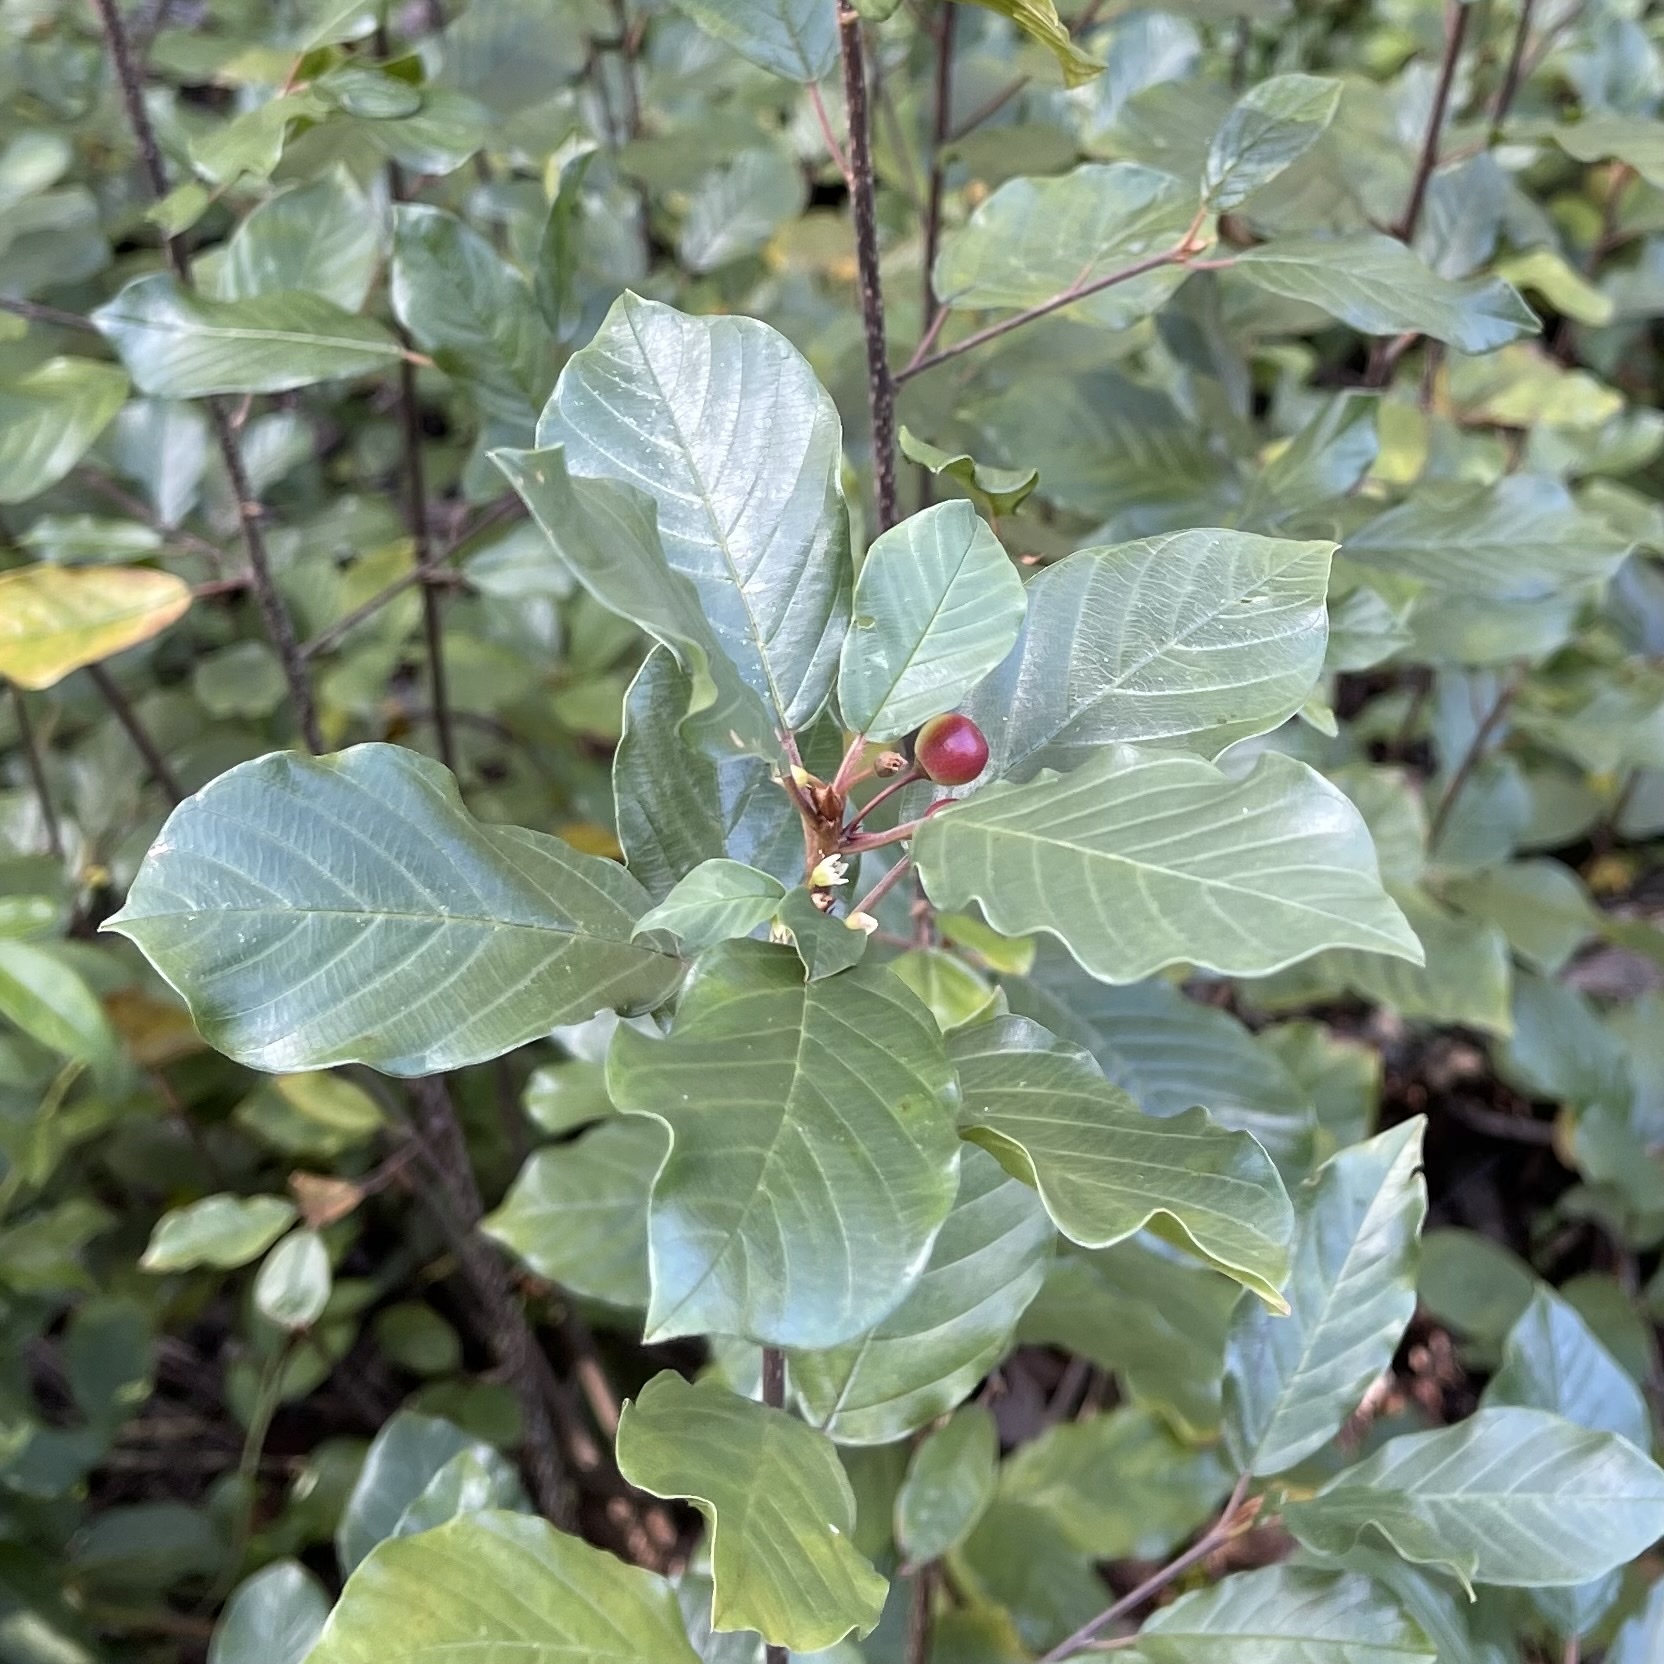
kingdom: Plantae
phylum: Tracheophyta
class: Magnoliopsida
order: Rosales
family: Rhamnaceae
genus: Frangula
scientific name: Frangula alnus
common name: Alder buckthorn
